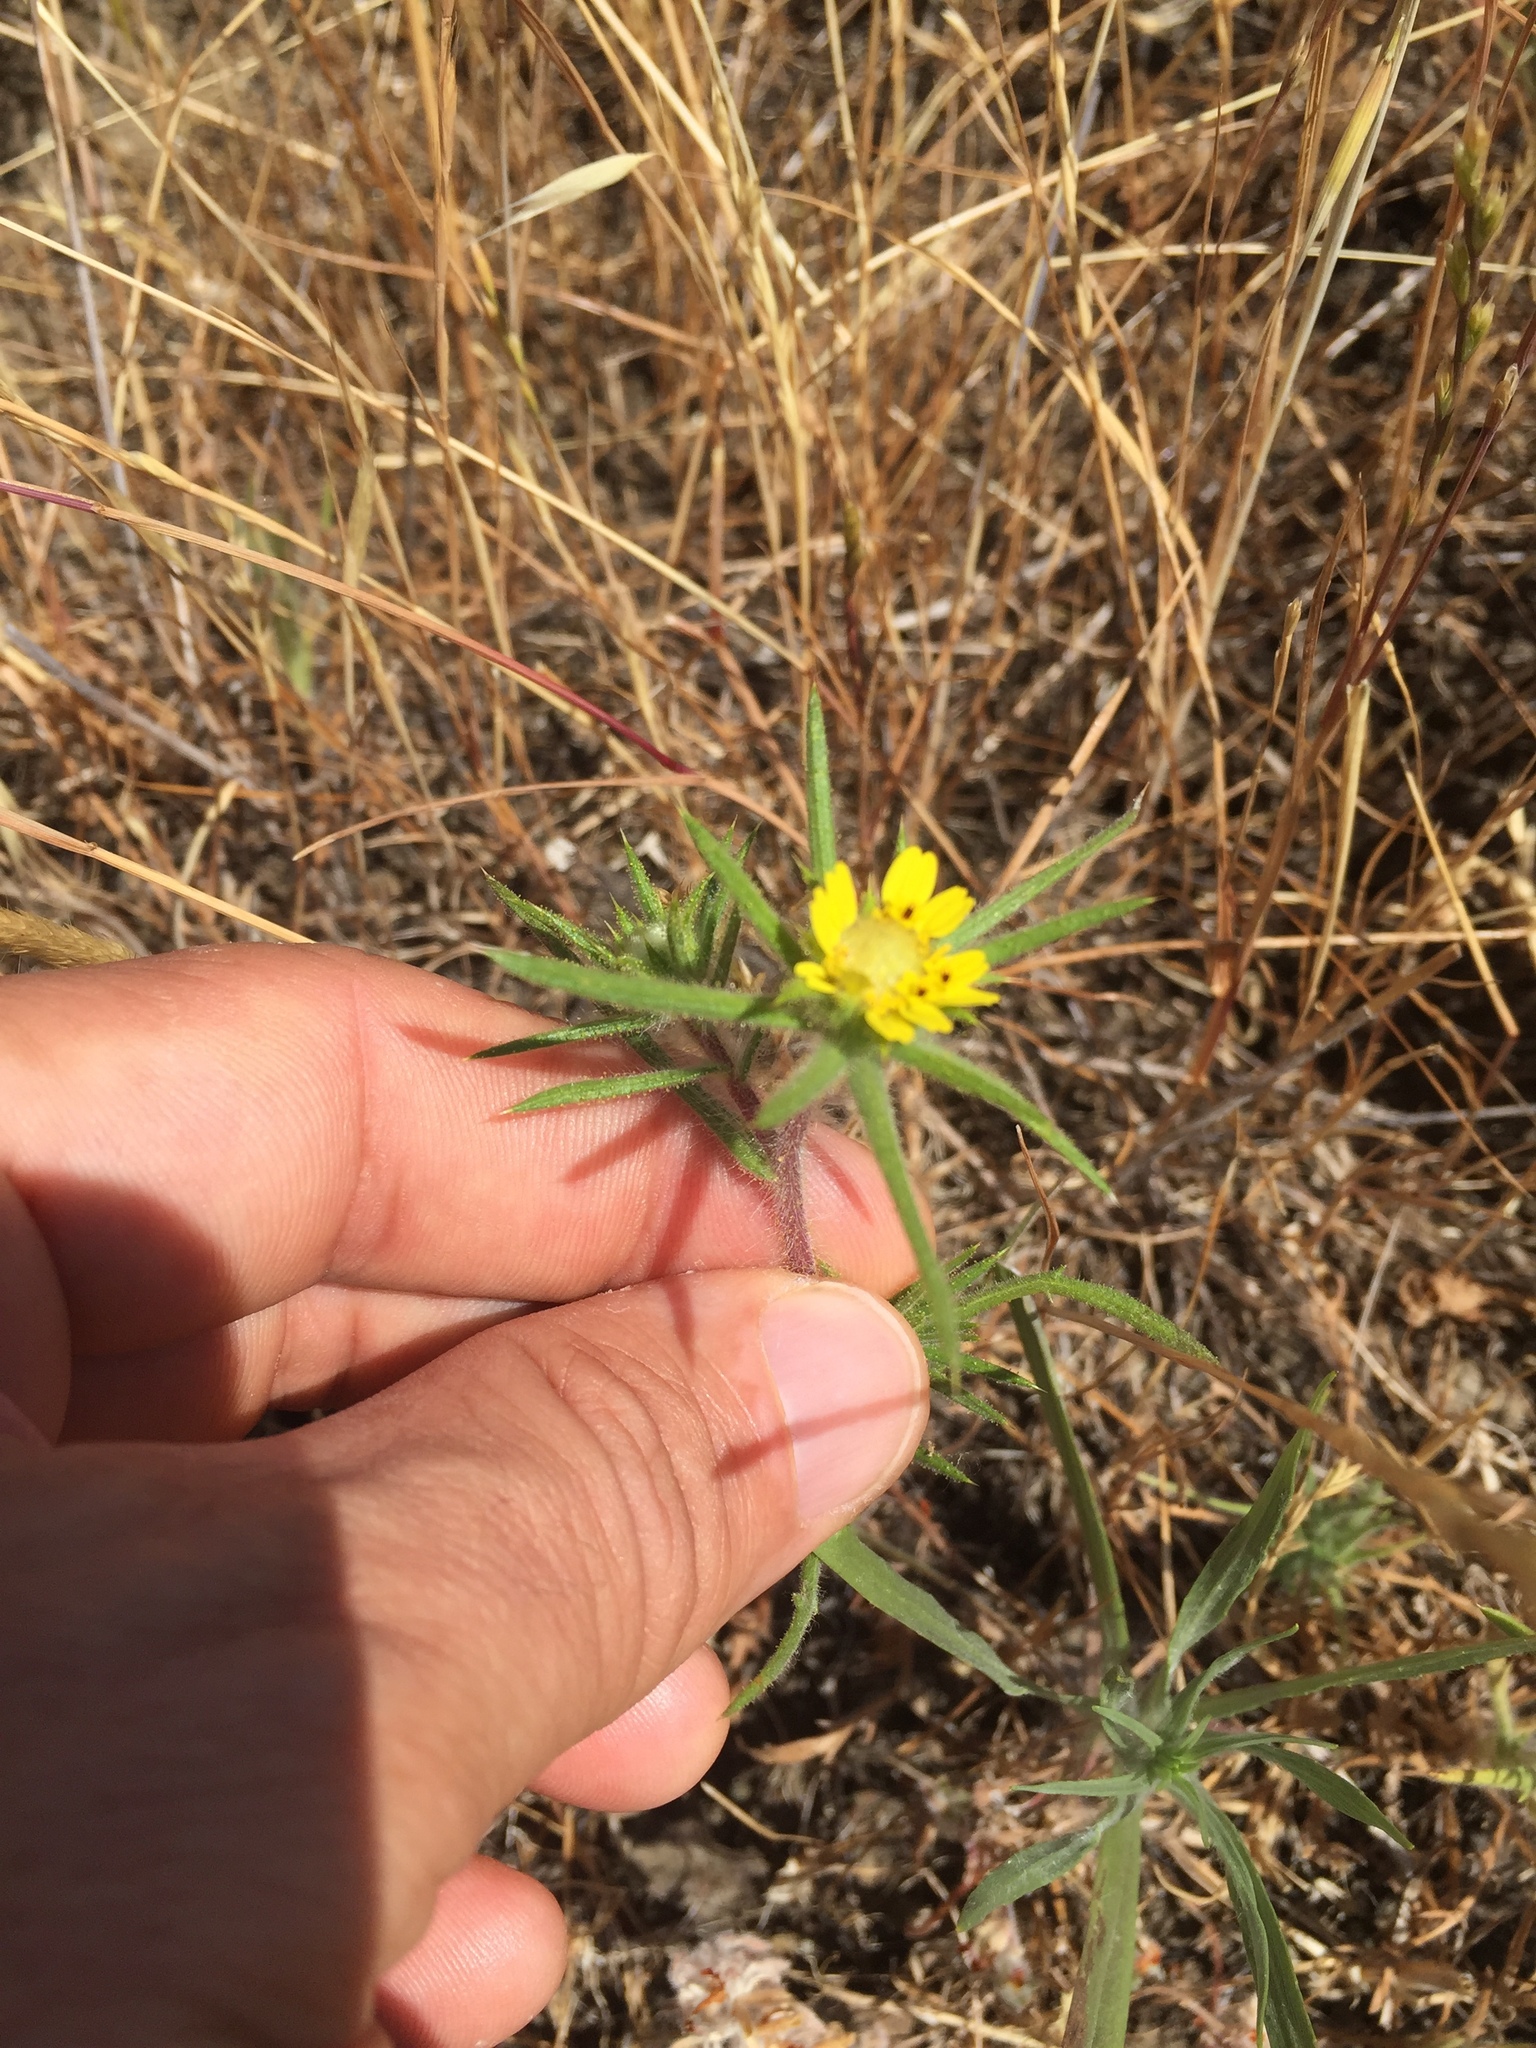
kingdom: Plantae
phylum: Tracheophyta
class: Magnoliopsida
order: Asterales
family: Asteraceae
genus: Centromadia
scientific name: Centromadia fitchii
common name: Fitch's spikeweed
